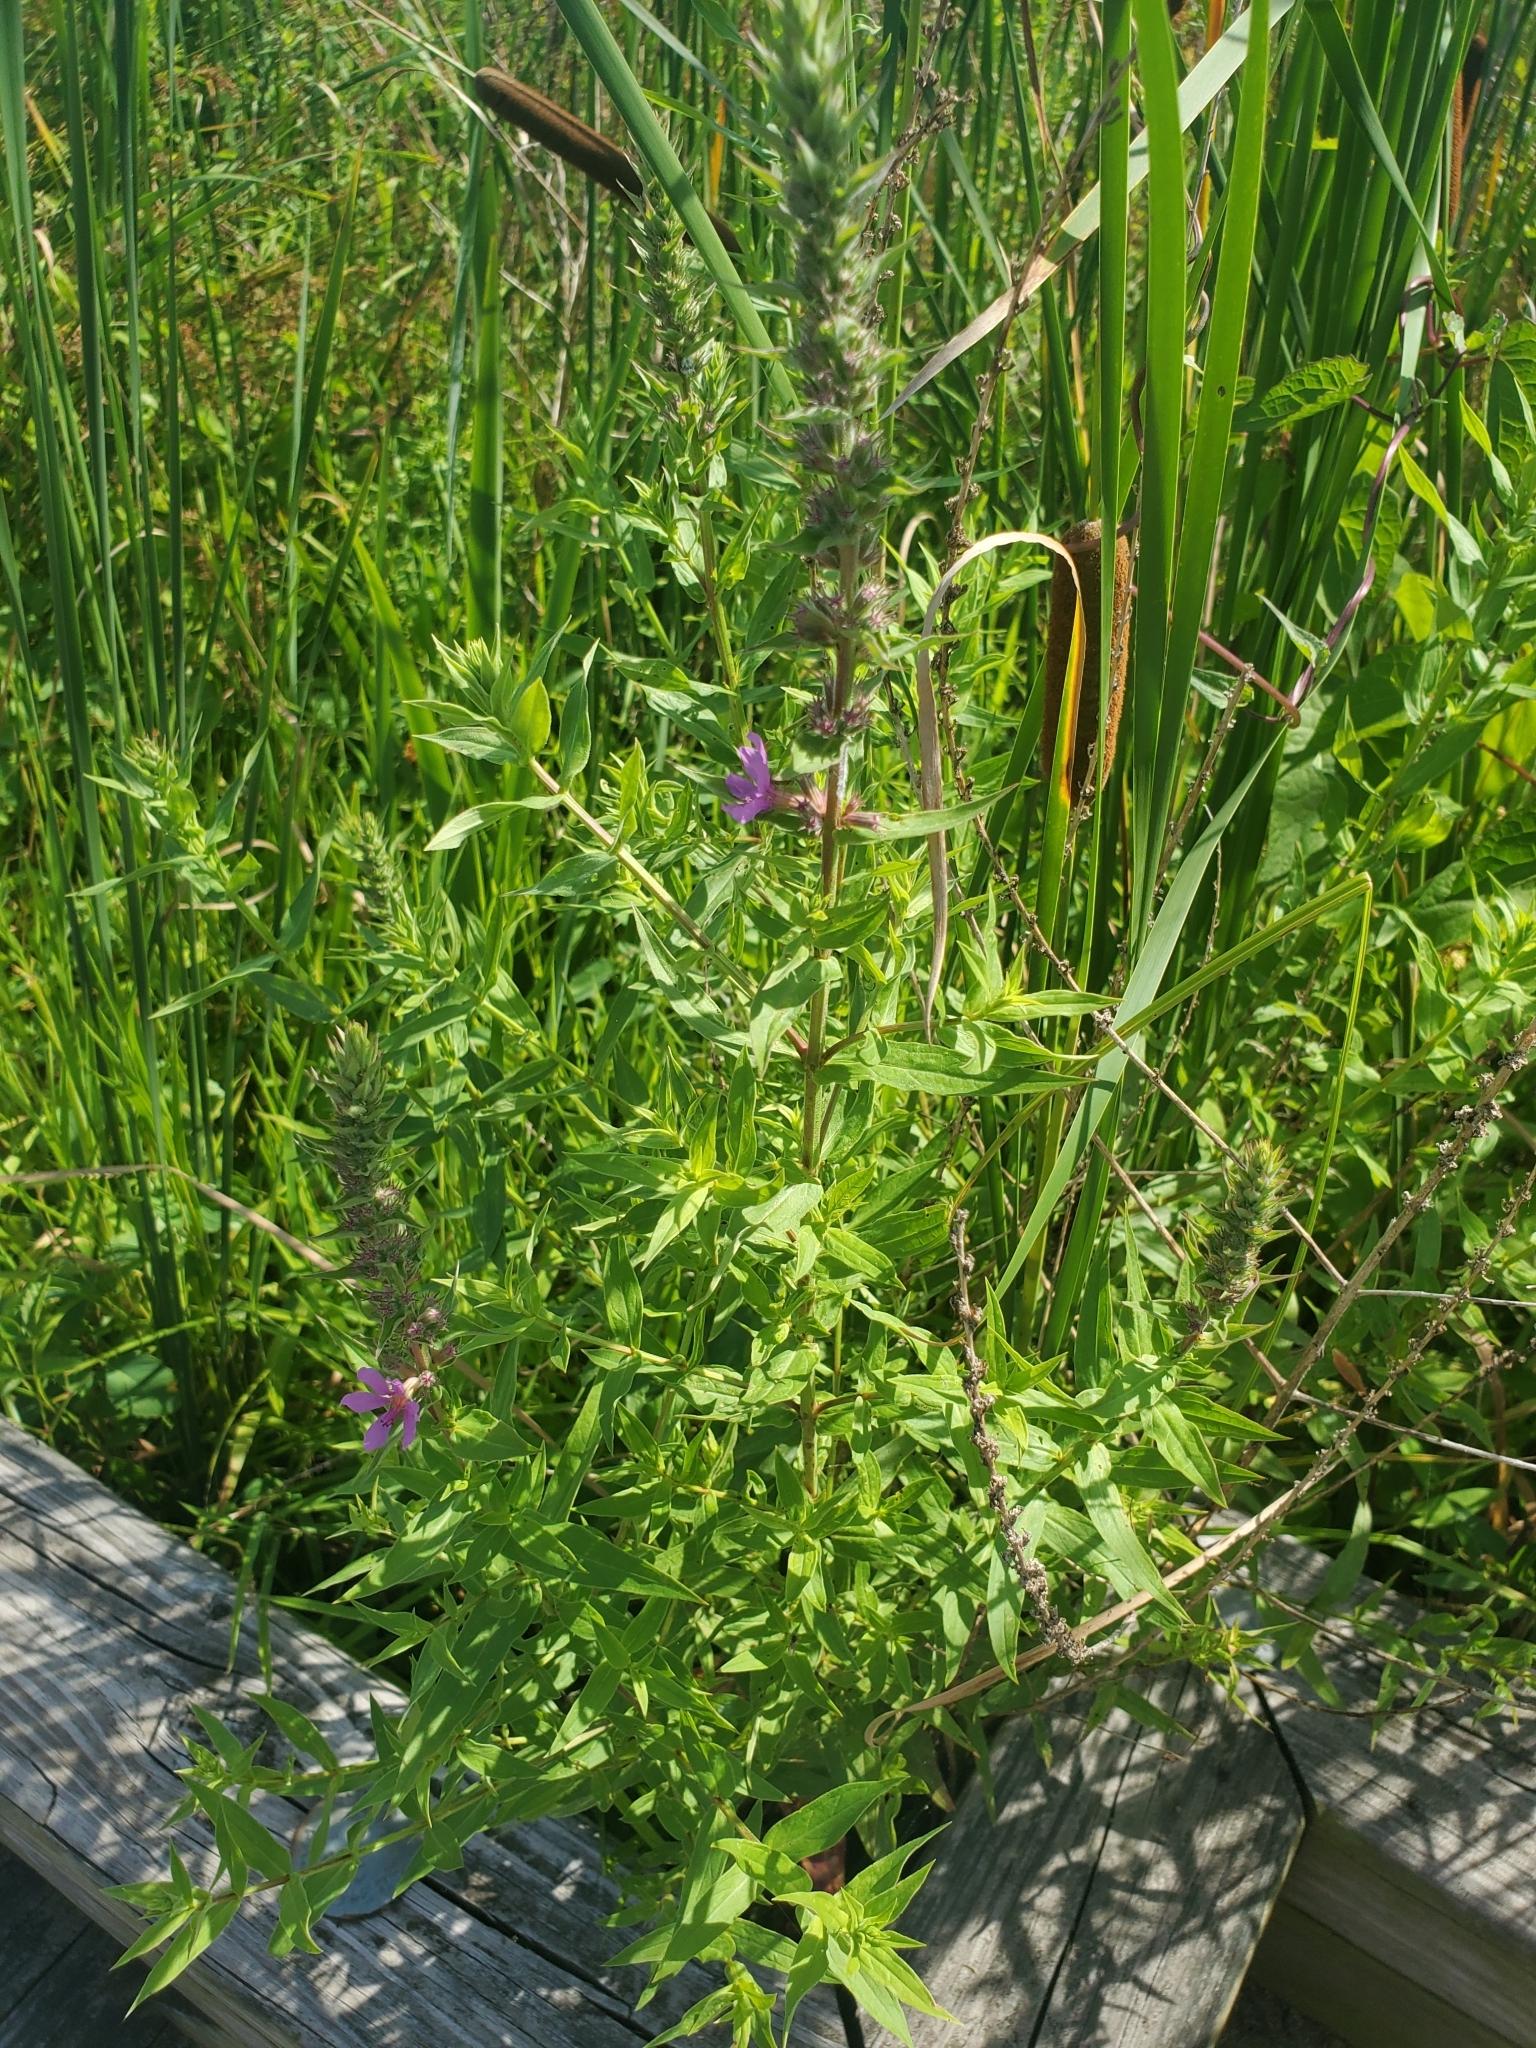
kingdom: Plantae
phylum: Tracheophyta
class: Magnoliopsida
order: Myrtales
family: Lythraceae
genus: Lythrum
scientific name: Lythrum salicaria
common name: Purple loosestrife
